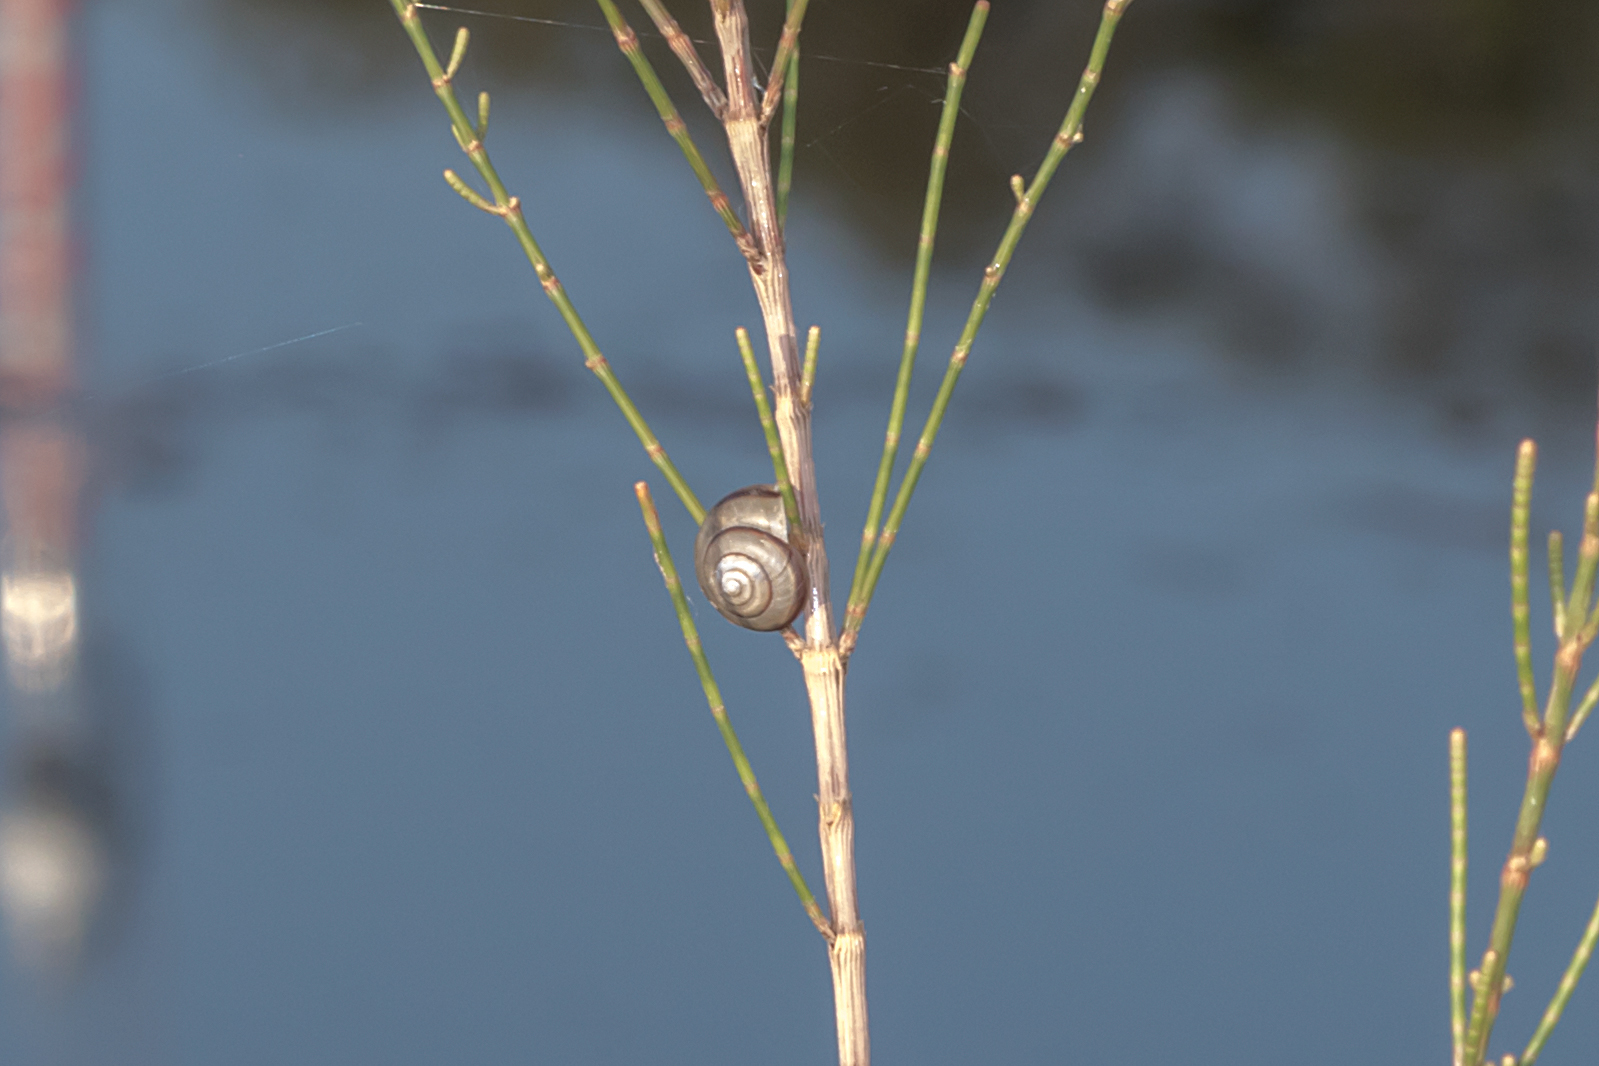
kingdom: Animalia
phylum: Mollusca
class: Gastropoda
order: Stylommatophora
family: Camaenidae
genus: Bradybaena
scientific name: Bradybaena similaris
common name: Asian trampsnail
